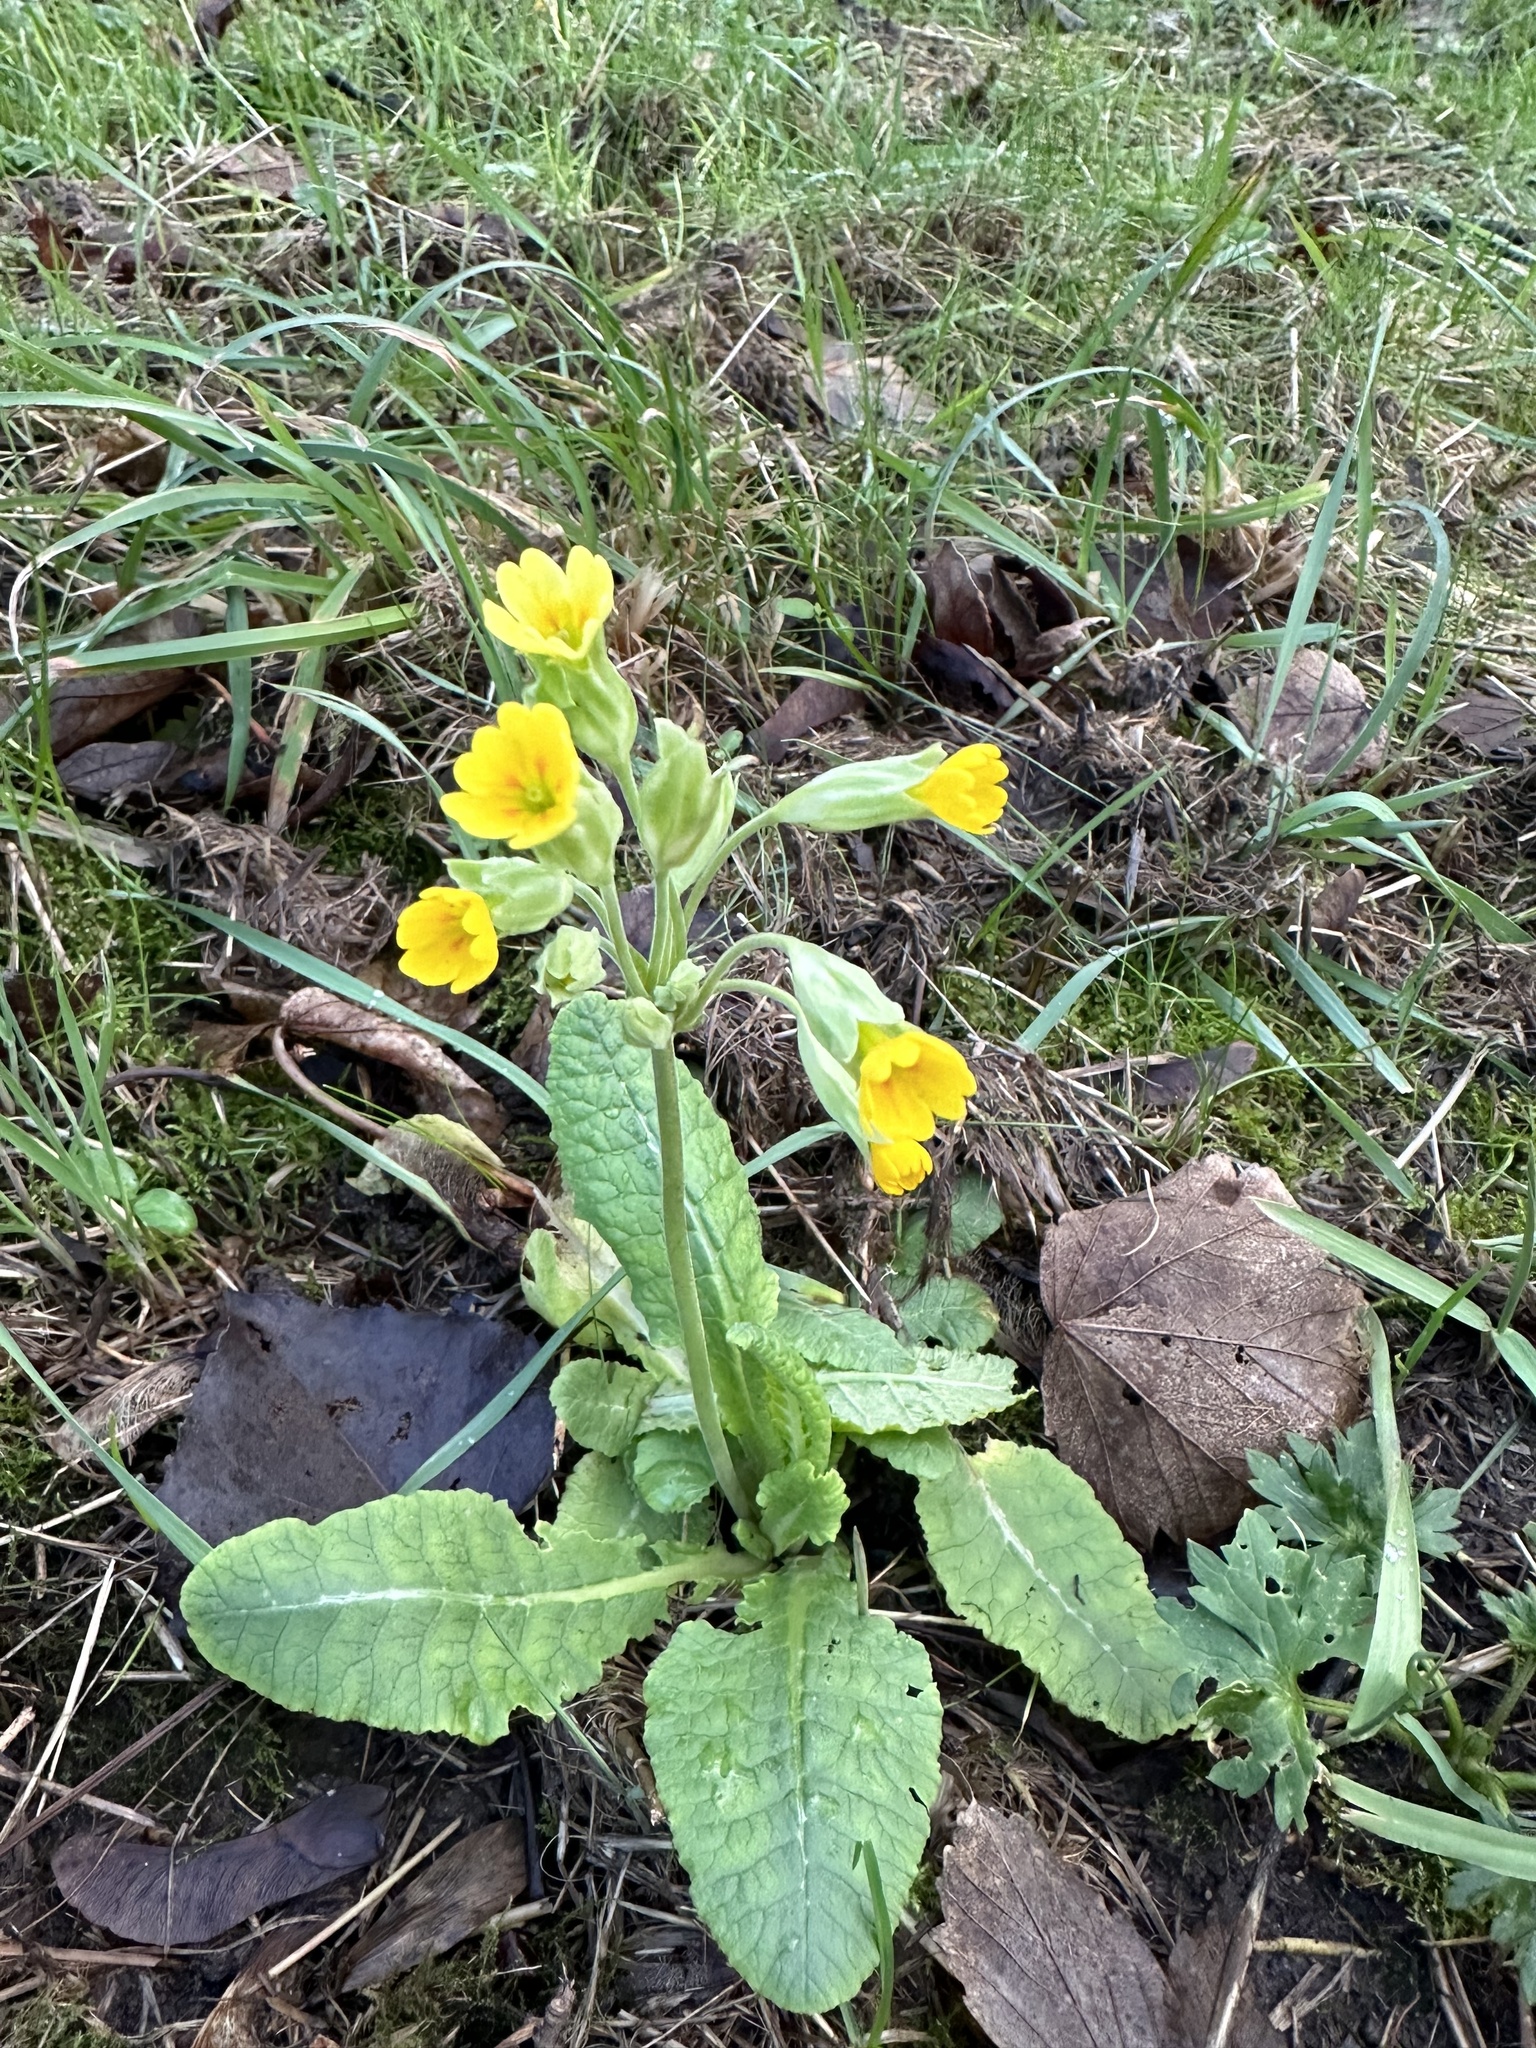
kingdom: Plantae
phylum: Tracheophyta
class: Magnoliopsida
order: Ericales
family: Primulaceae
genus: Primula
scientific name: Primula veris
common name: Cowslip
